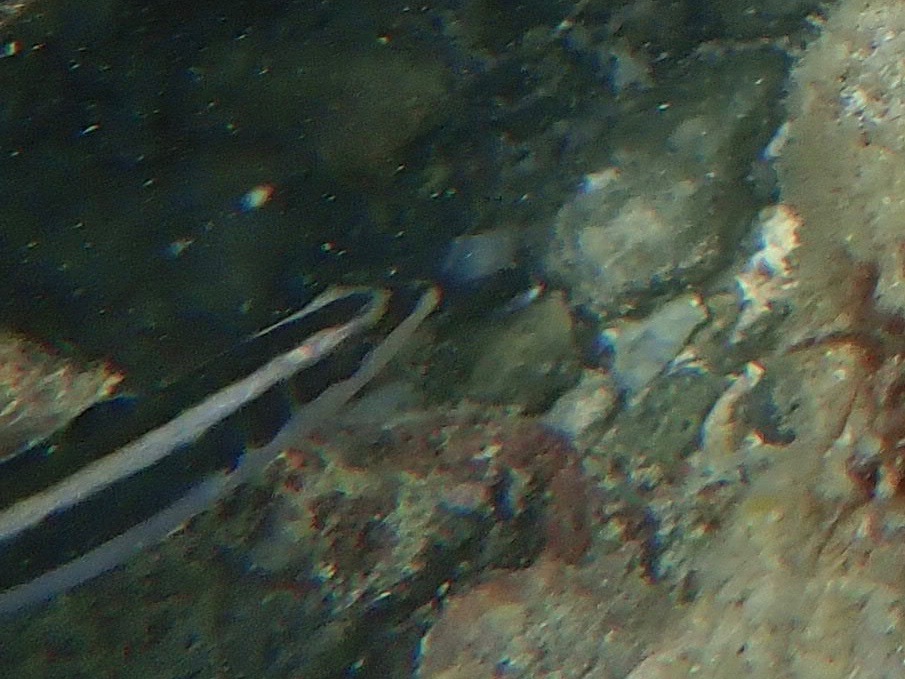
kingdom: Animalia
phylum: Chordata
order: Perciformes
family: Labridae
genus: Thalassoma
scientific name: Thalassoma bifasciatum
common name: Bluehead wrasse
